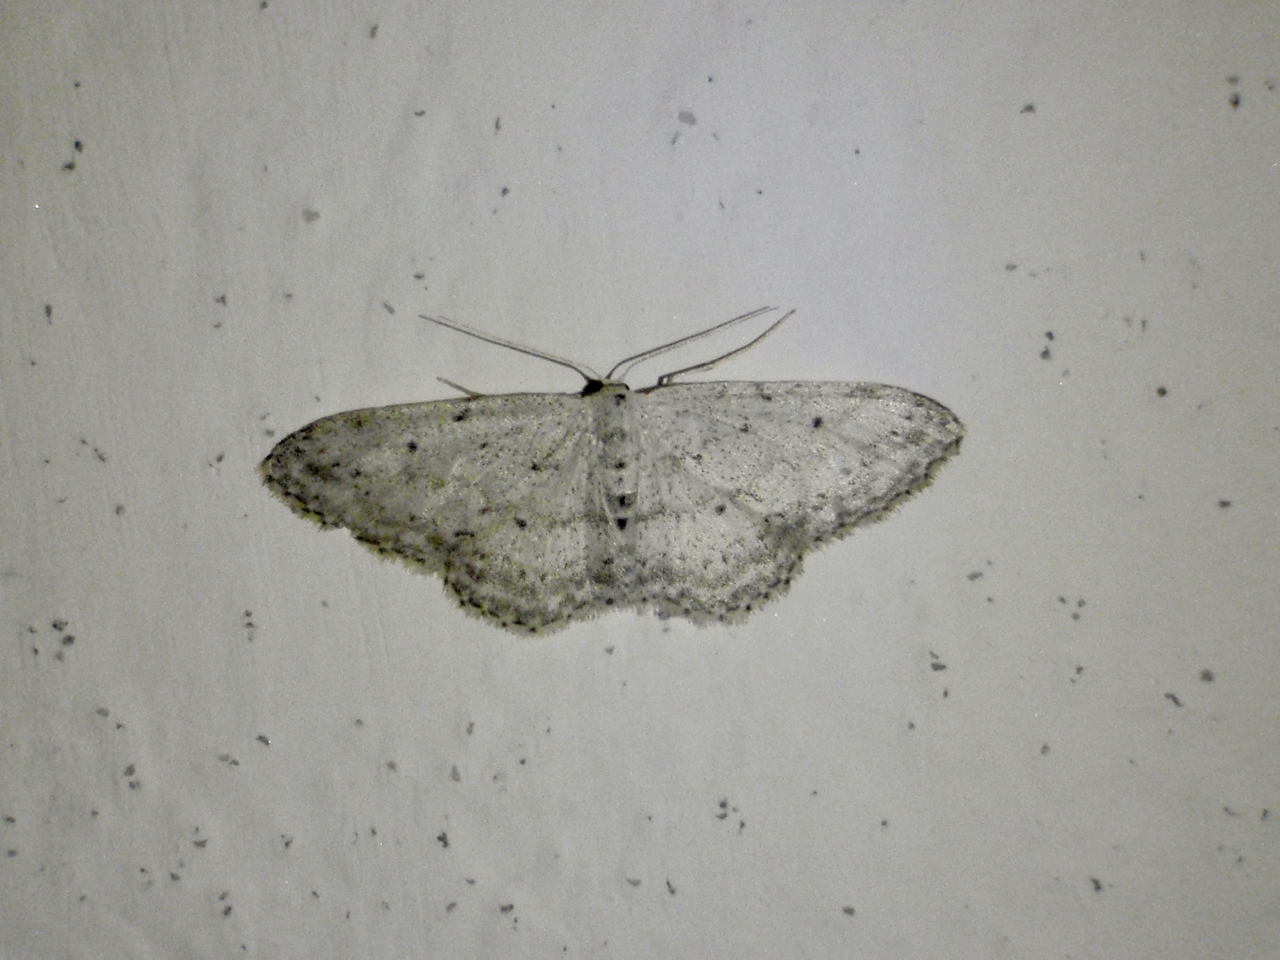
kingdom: Animalia
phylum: Arthropoda
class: Insecta
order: Lepidoptera
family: Geometridae
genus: Idaea
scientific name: Idaea seriata
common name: Small dusty wave
